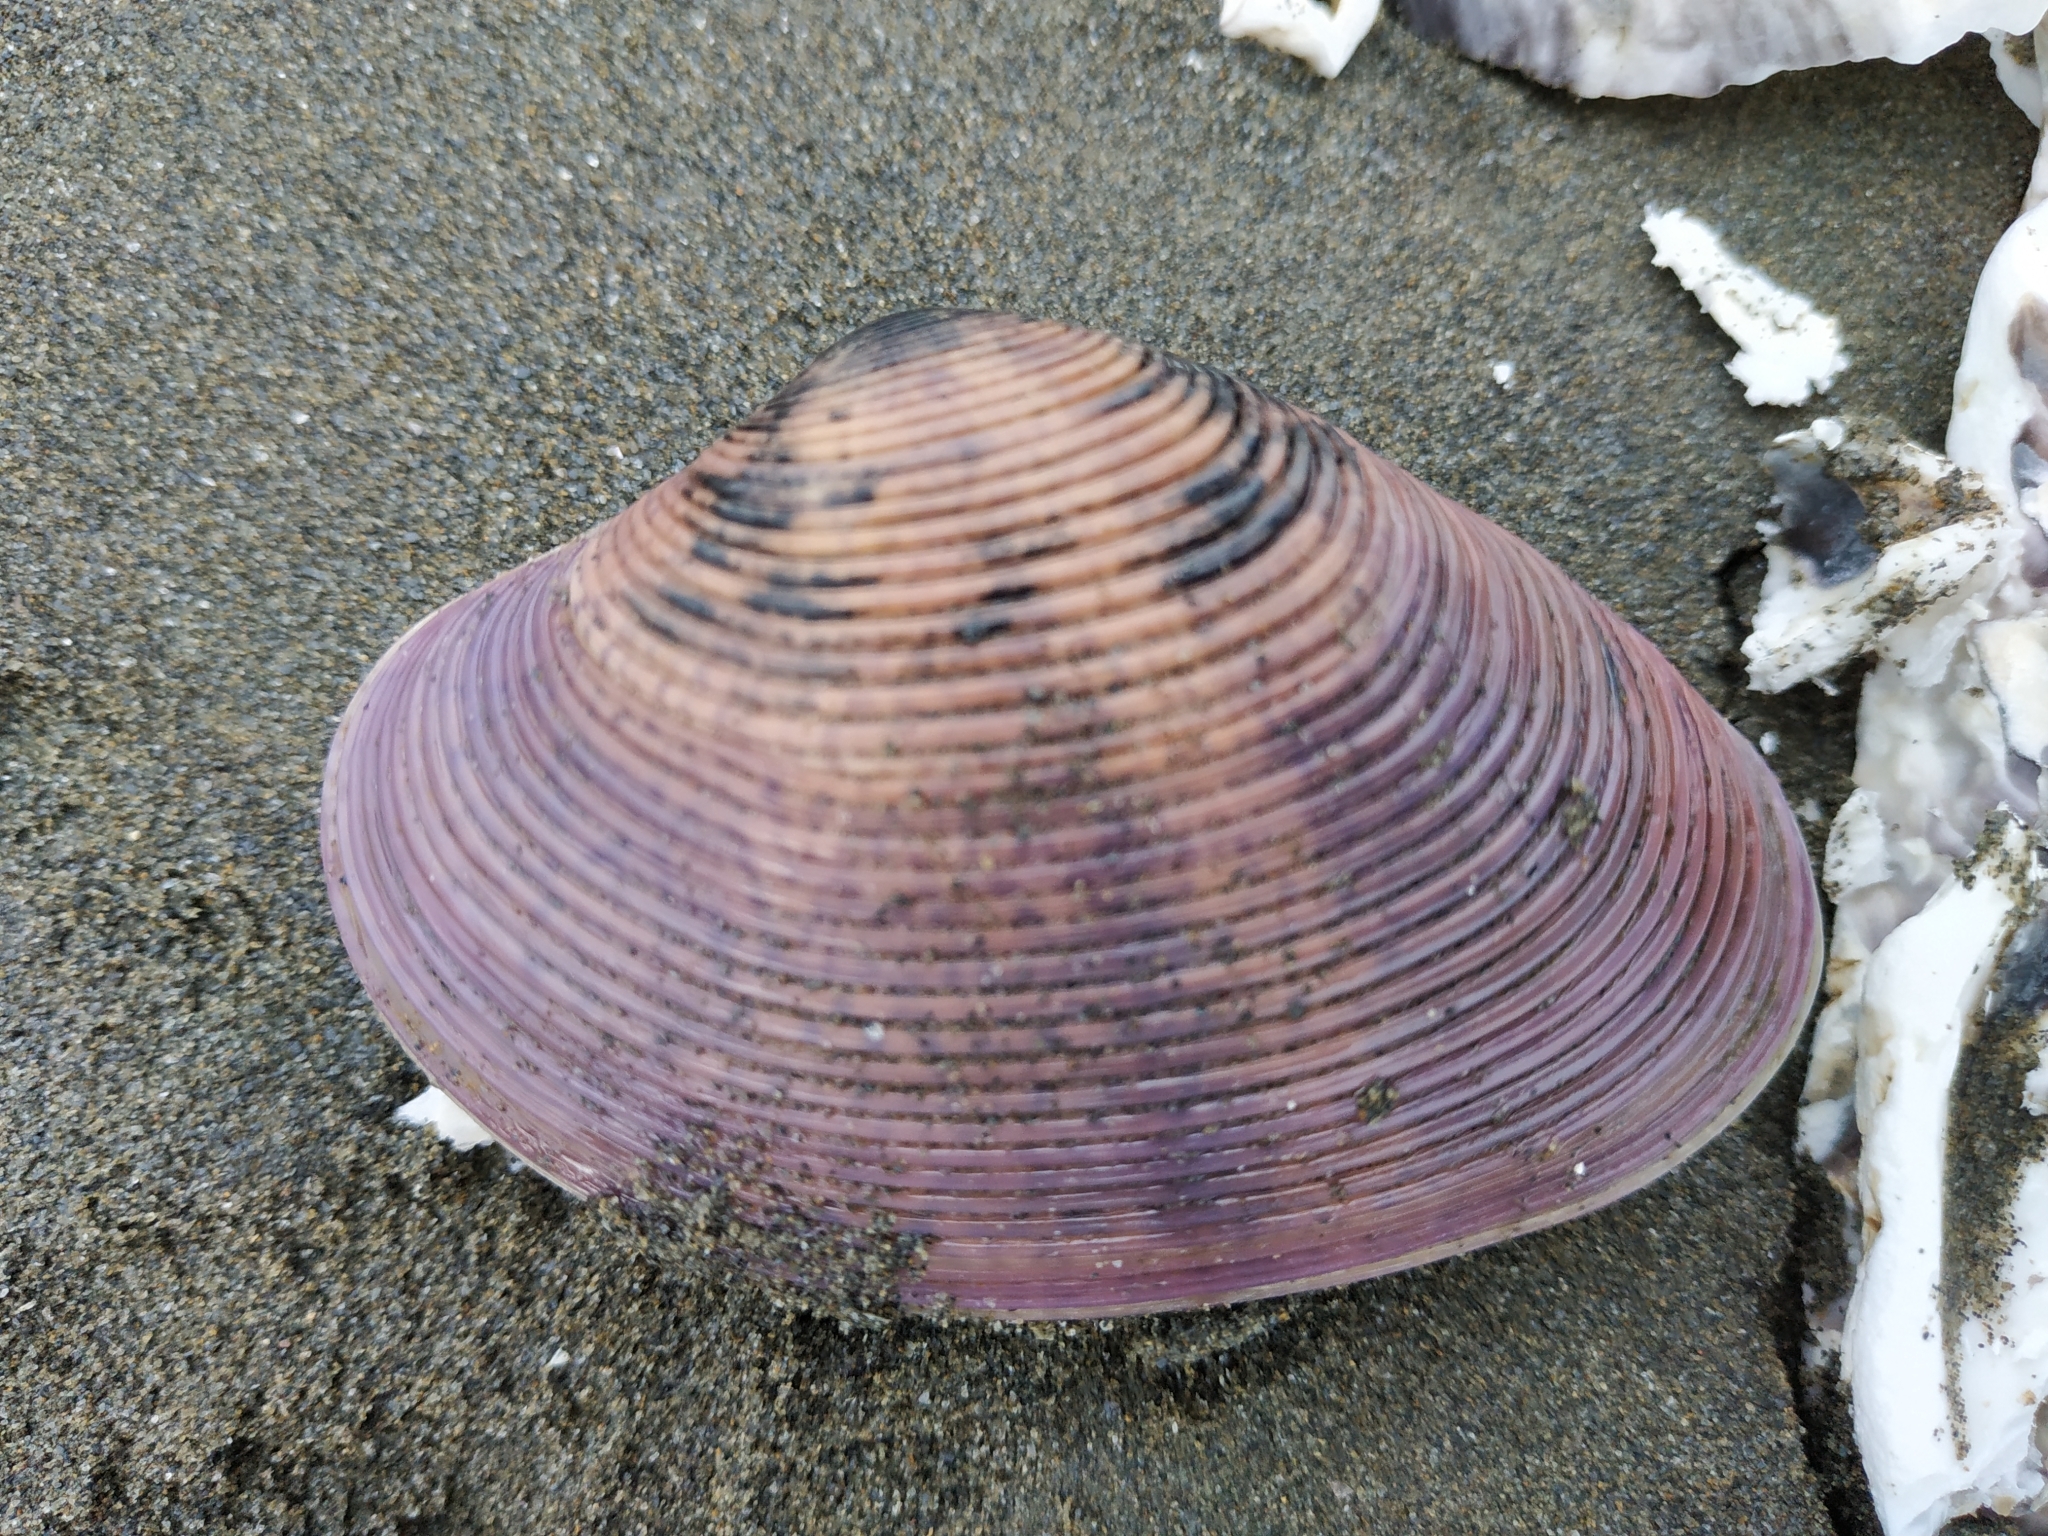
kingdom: Animalia
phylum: Mollusca
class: Bivalvia
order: Venerida
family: Veneridae
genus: Paphia
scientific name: Paphia amabilis
